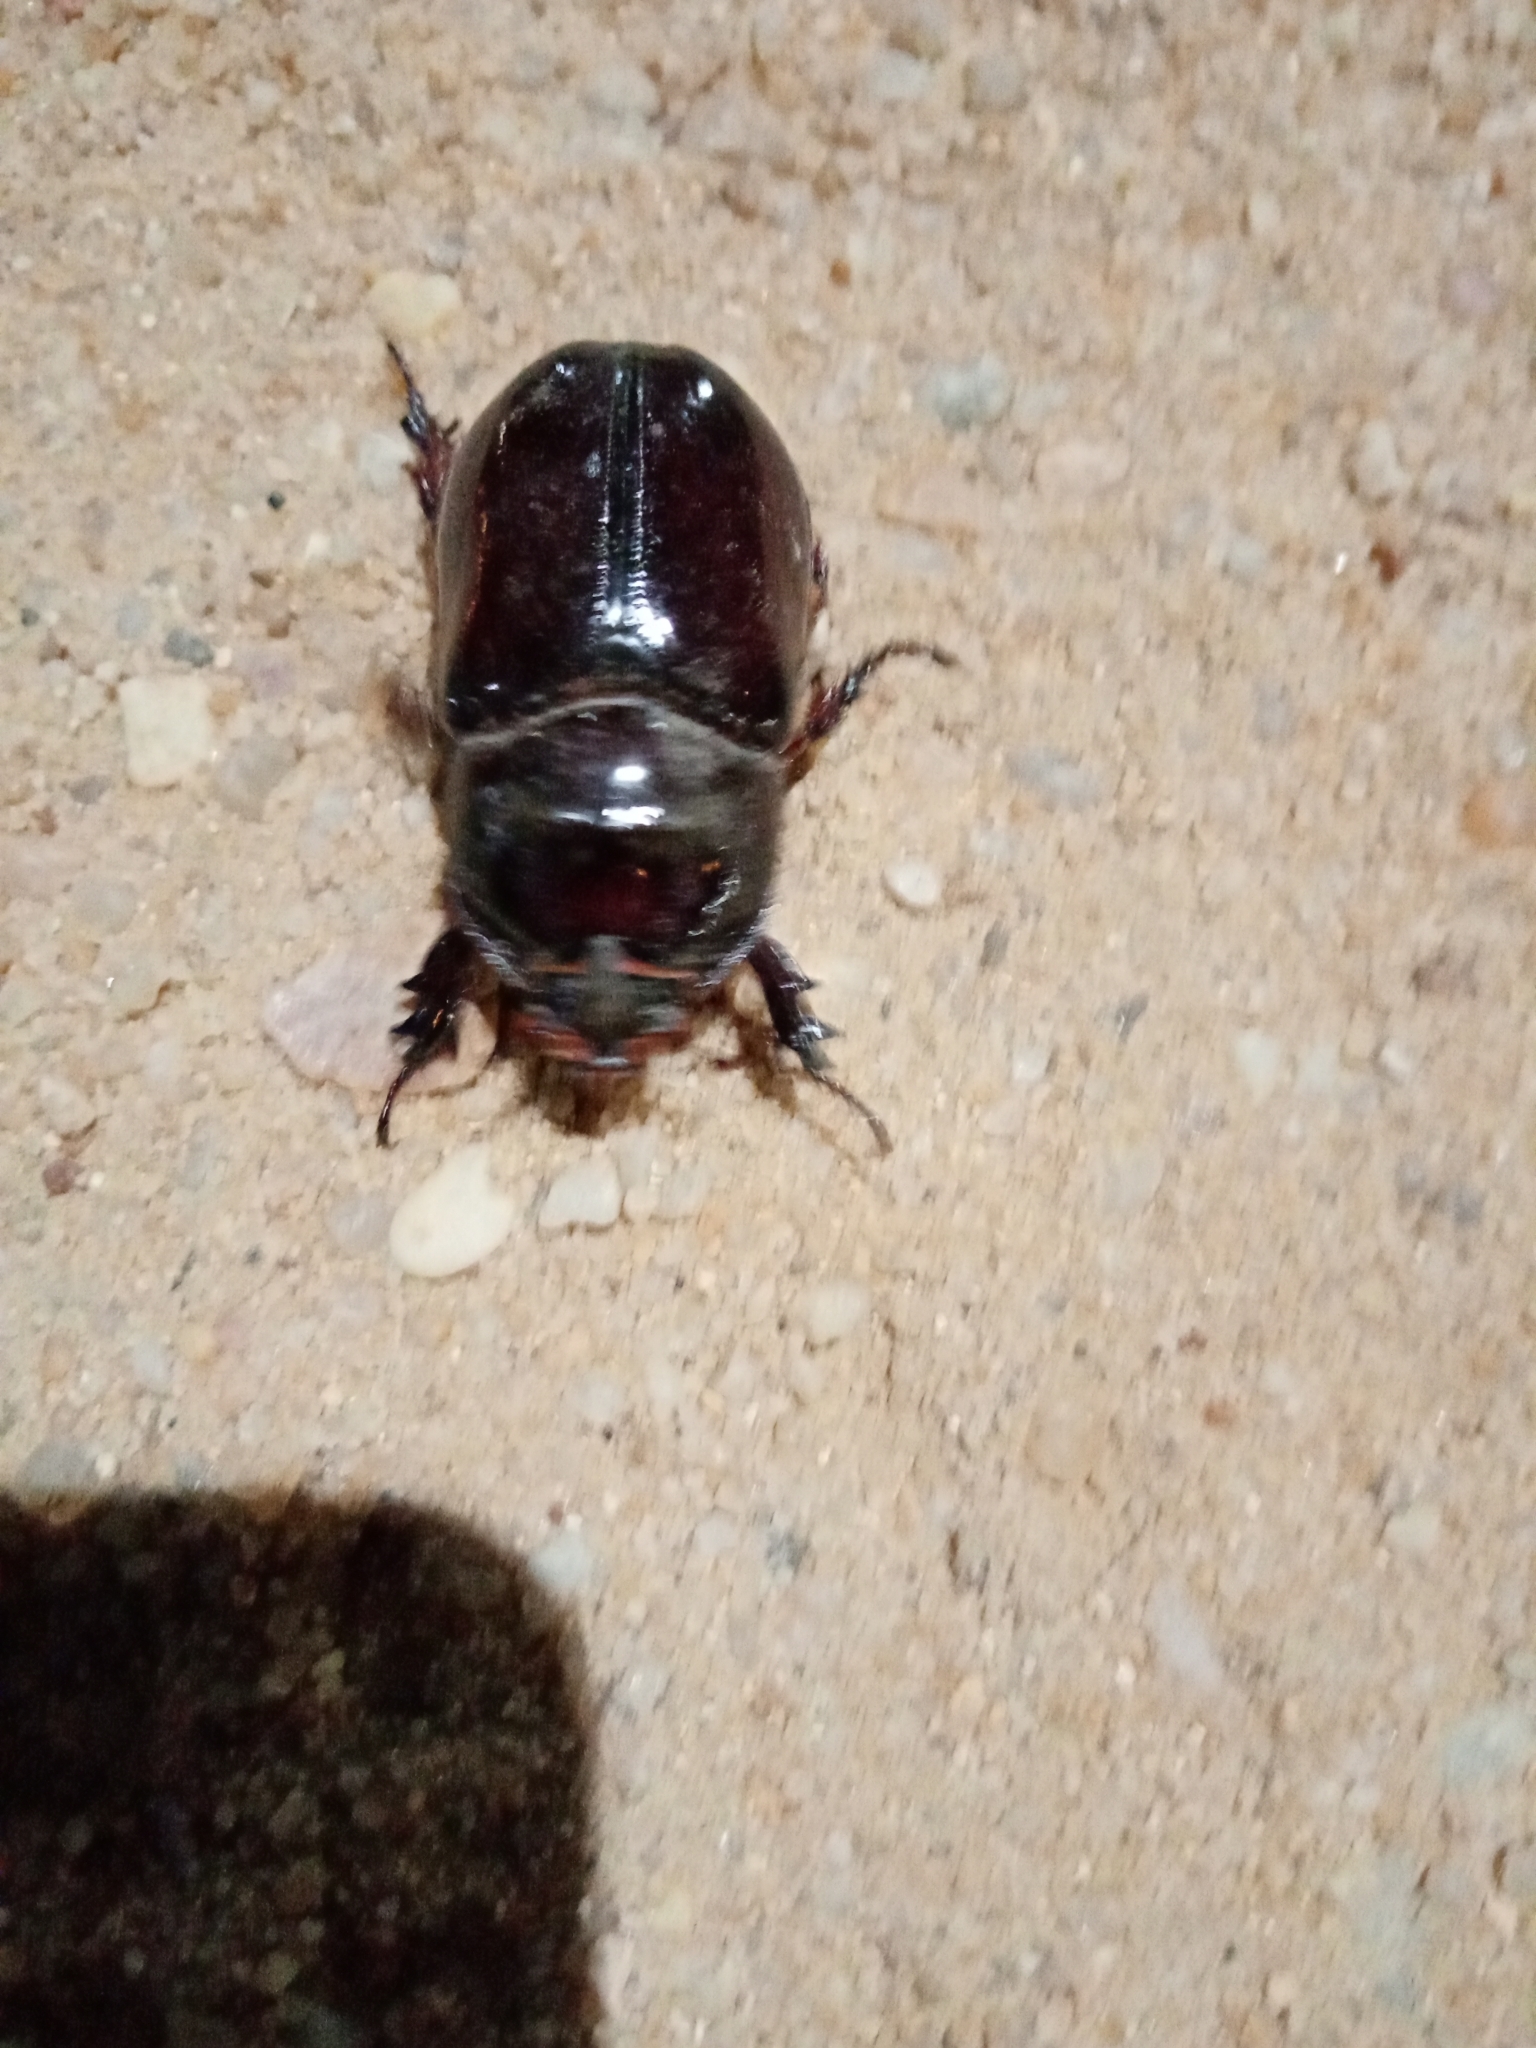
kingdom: Animalia
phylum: Arthropoda
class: Insecta
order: Coleoptera
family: Scarabaeidae
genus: Oryctes
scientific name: Oryctes nasicornis
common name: European rhinoceros beetle
